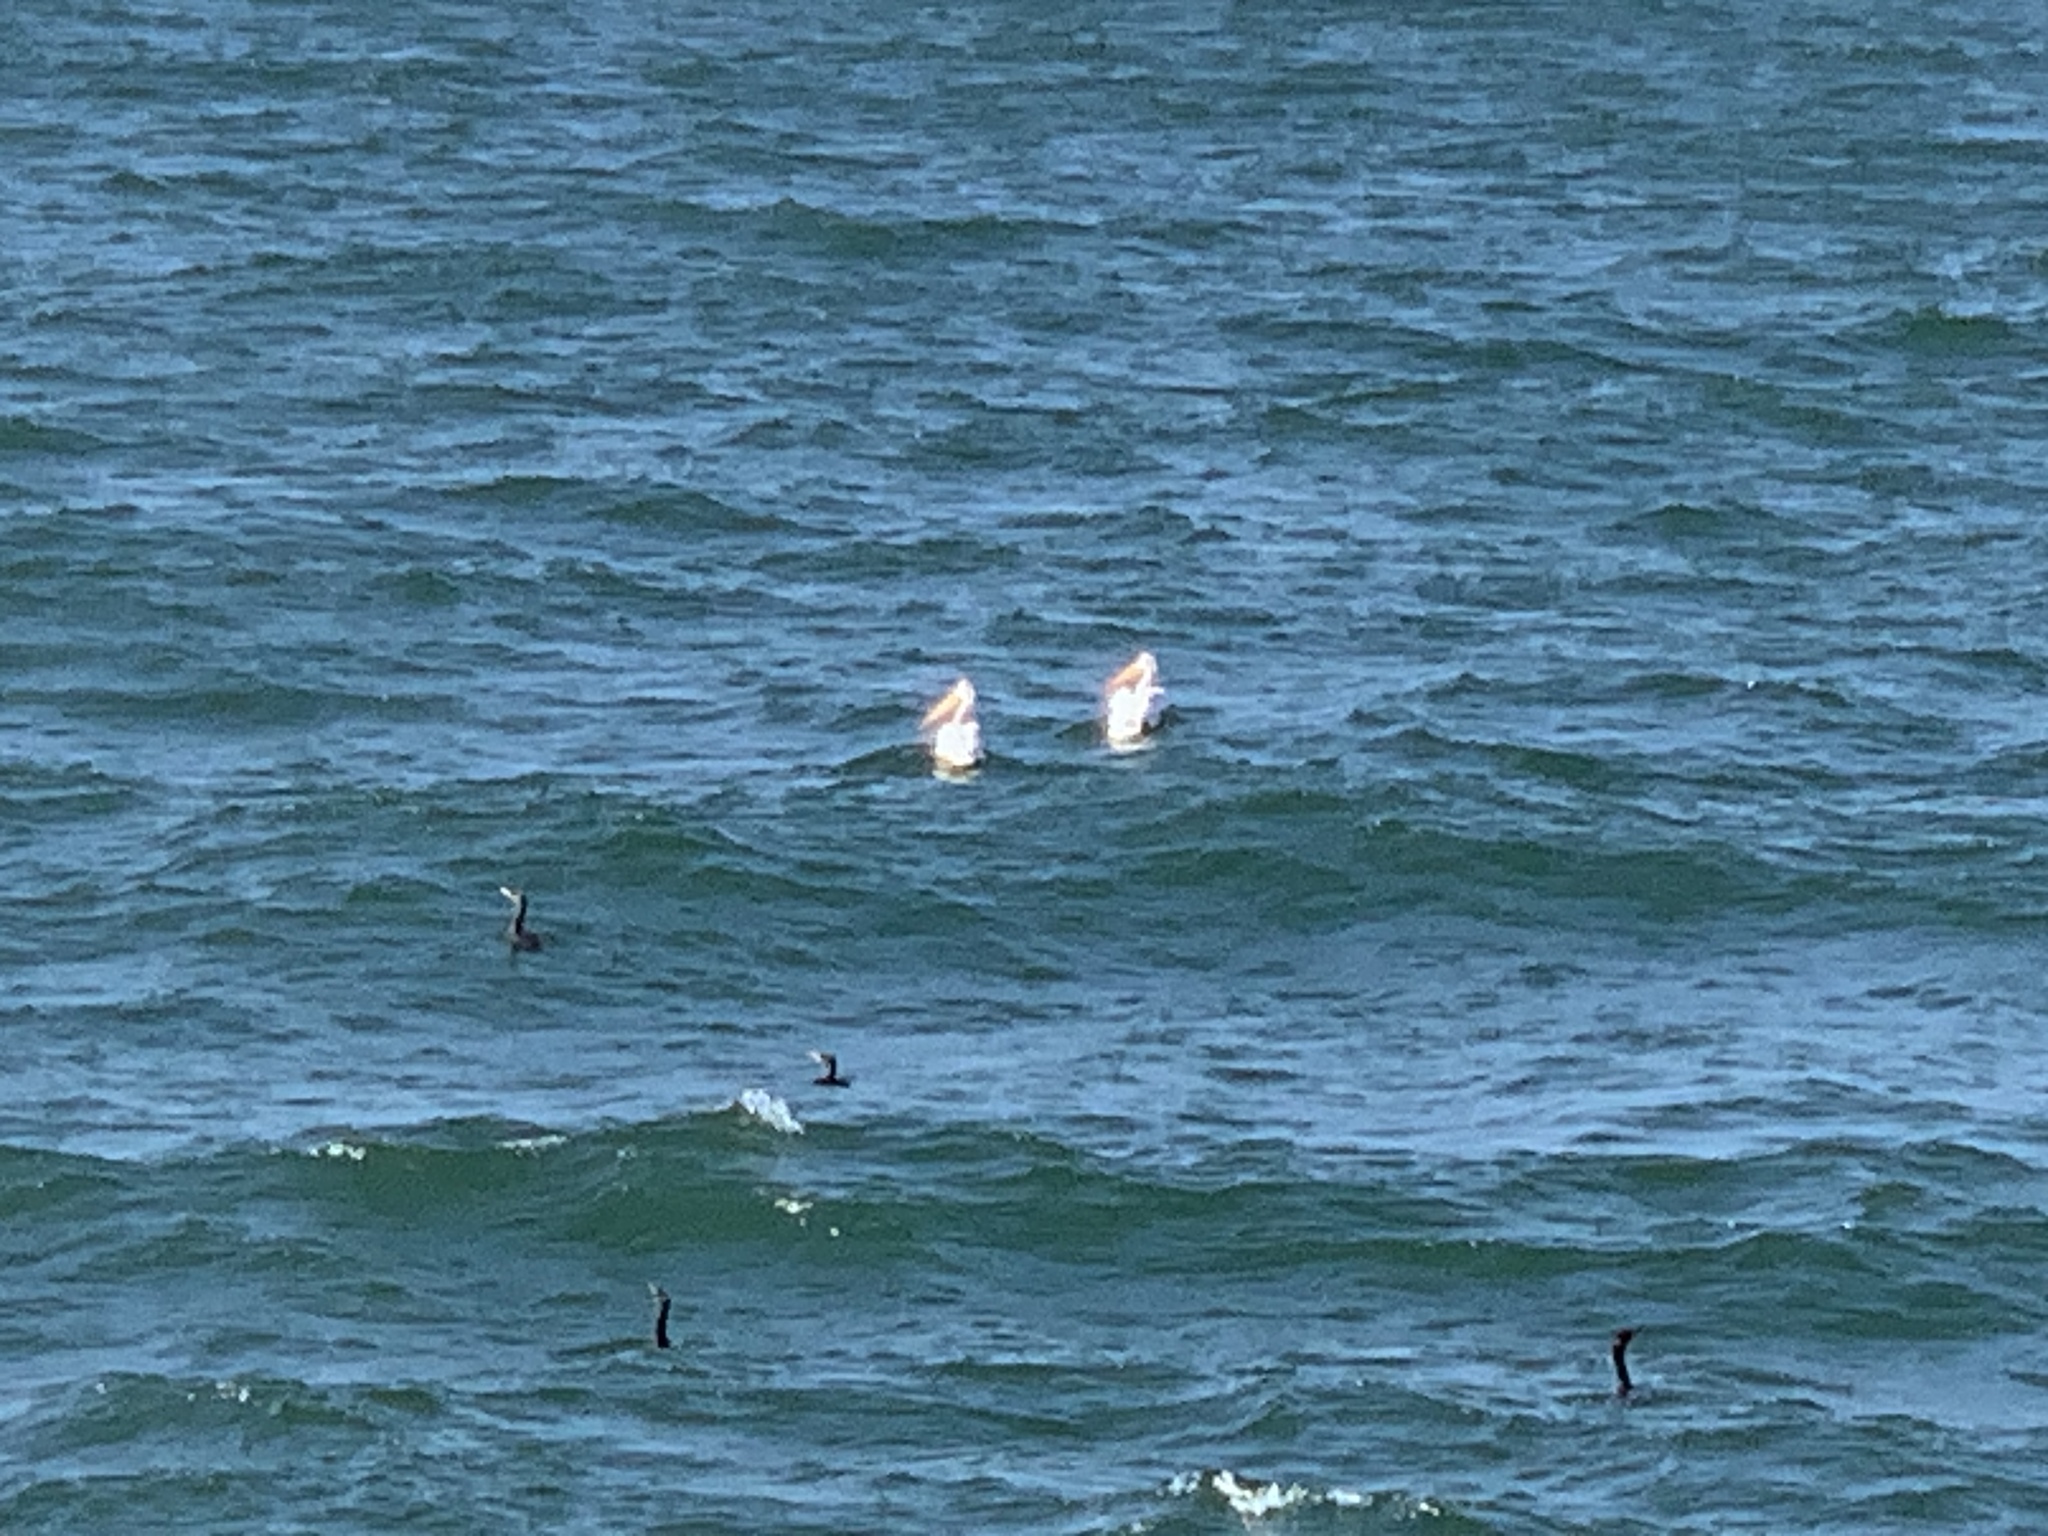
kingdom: Animalia
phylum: Chordata
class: Aves
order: Pelecaniformes
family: Pelecanidae
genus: Pelecanus
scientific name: Pelecanus erythrorhynchos
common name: American white pelican
